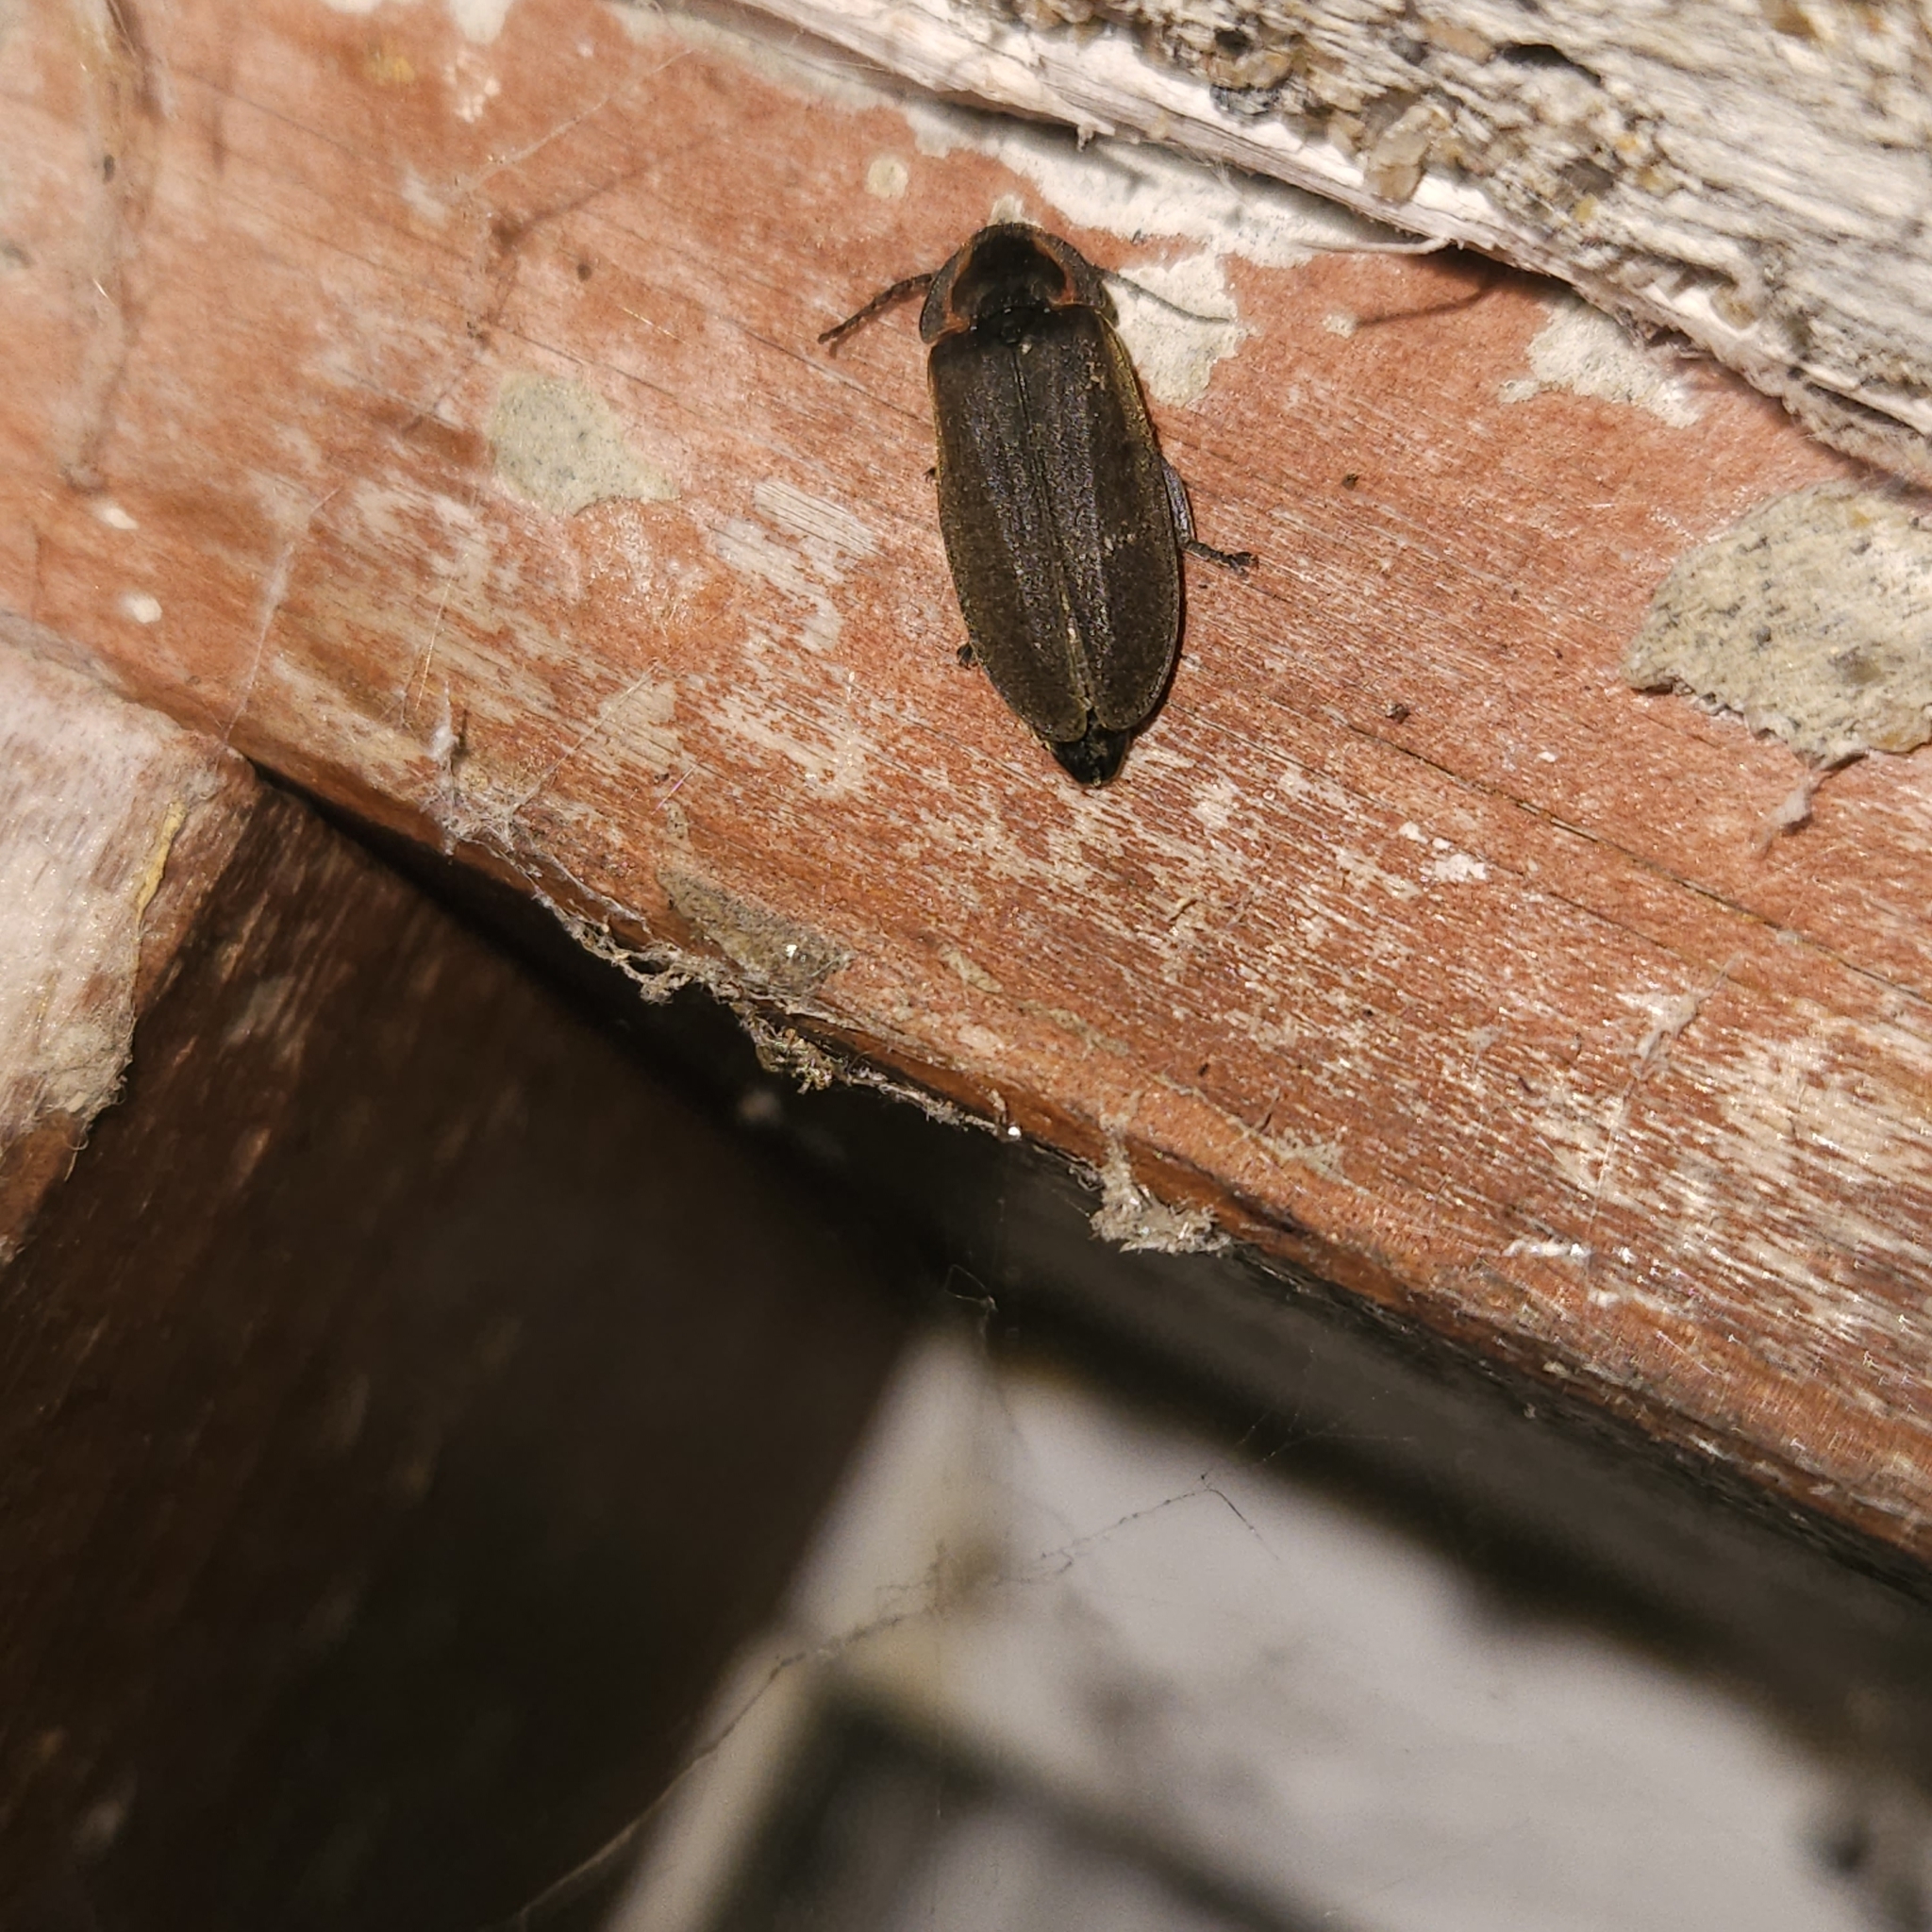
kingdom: Animalia
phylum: Arthropoda
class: Insecta
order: Coleoptera
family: Lampyridae
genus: Photinus
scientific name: Photinus corrusca
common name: Winter firefly
